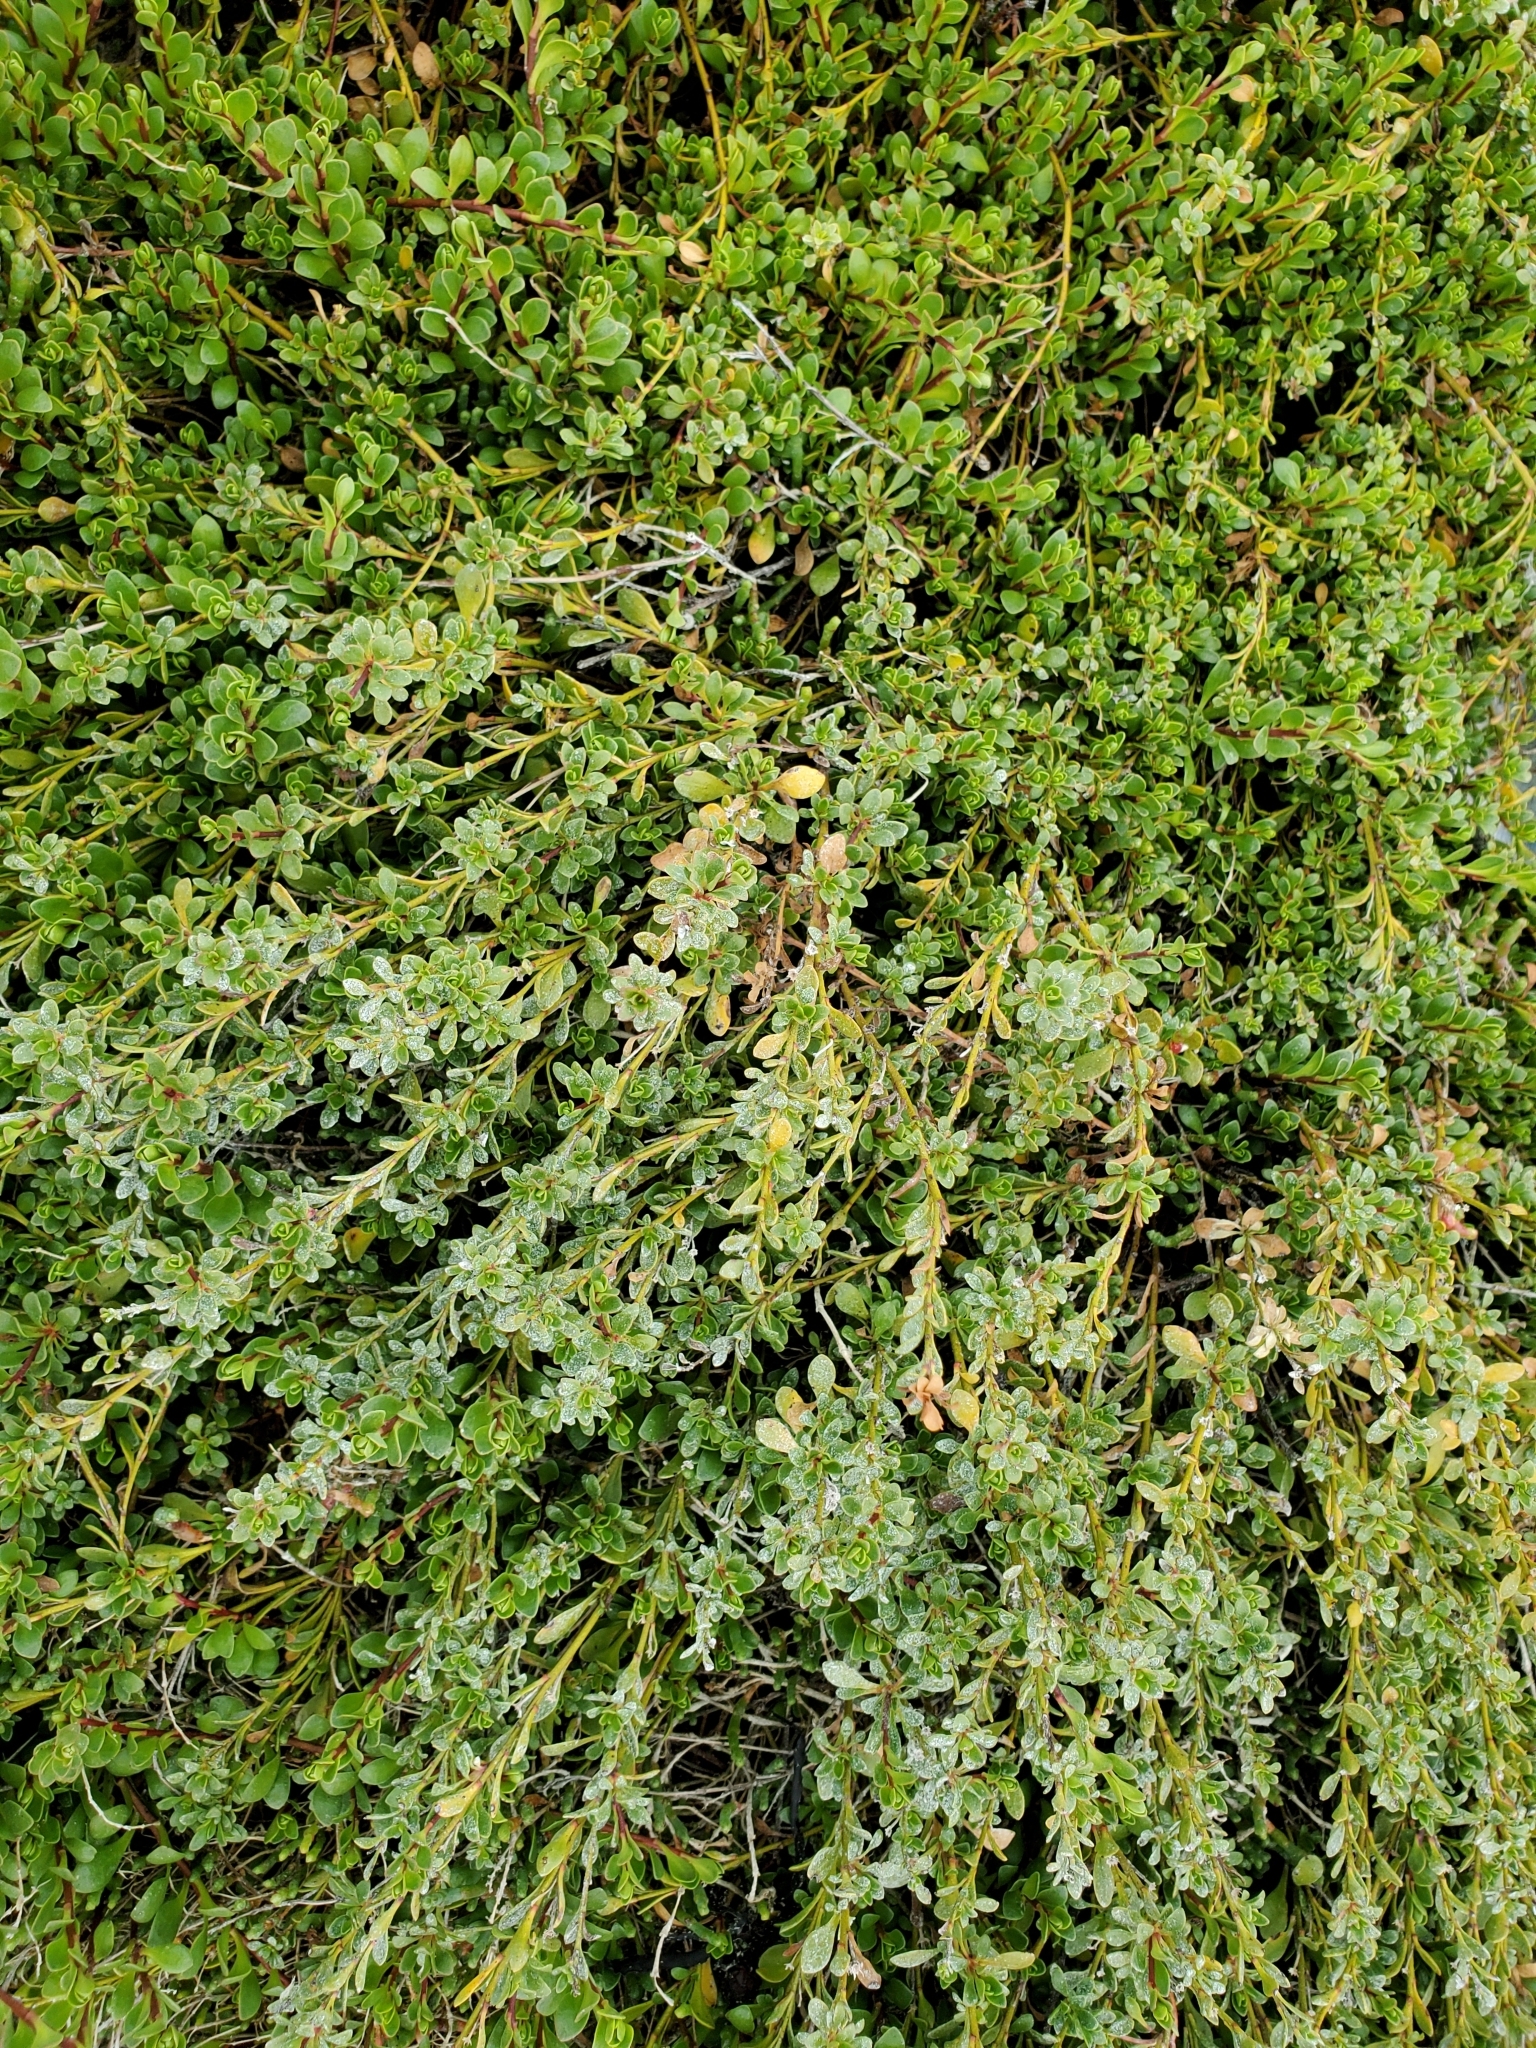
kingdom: Plantae
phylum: Tracheophyta
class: Magnoliopsida
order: Ericales
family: Primulaceae
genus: Samolus
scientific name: Samolus repens
